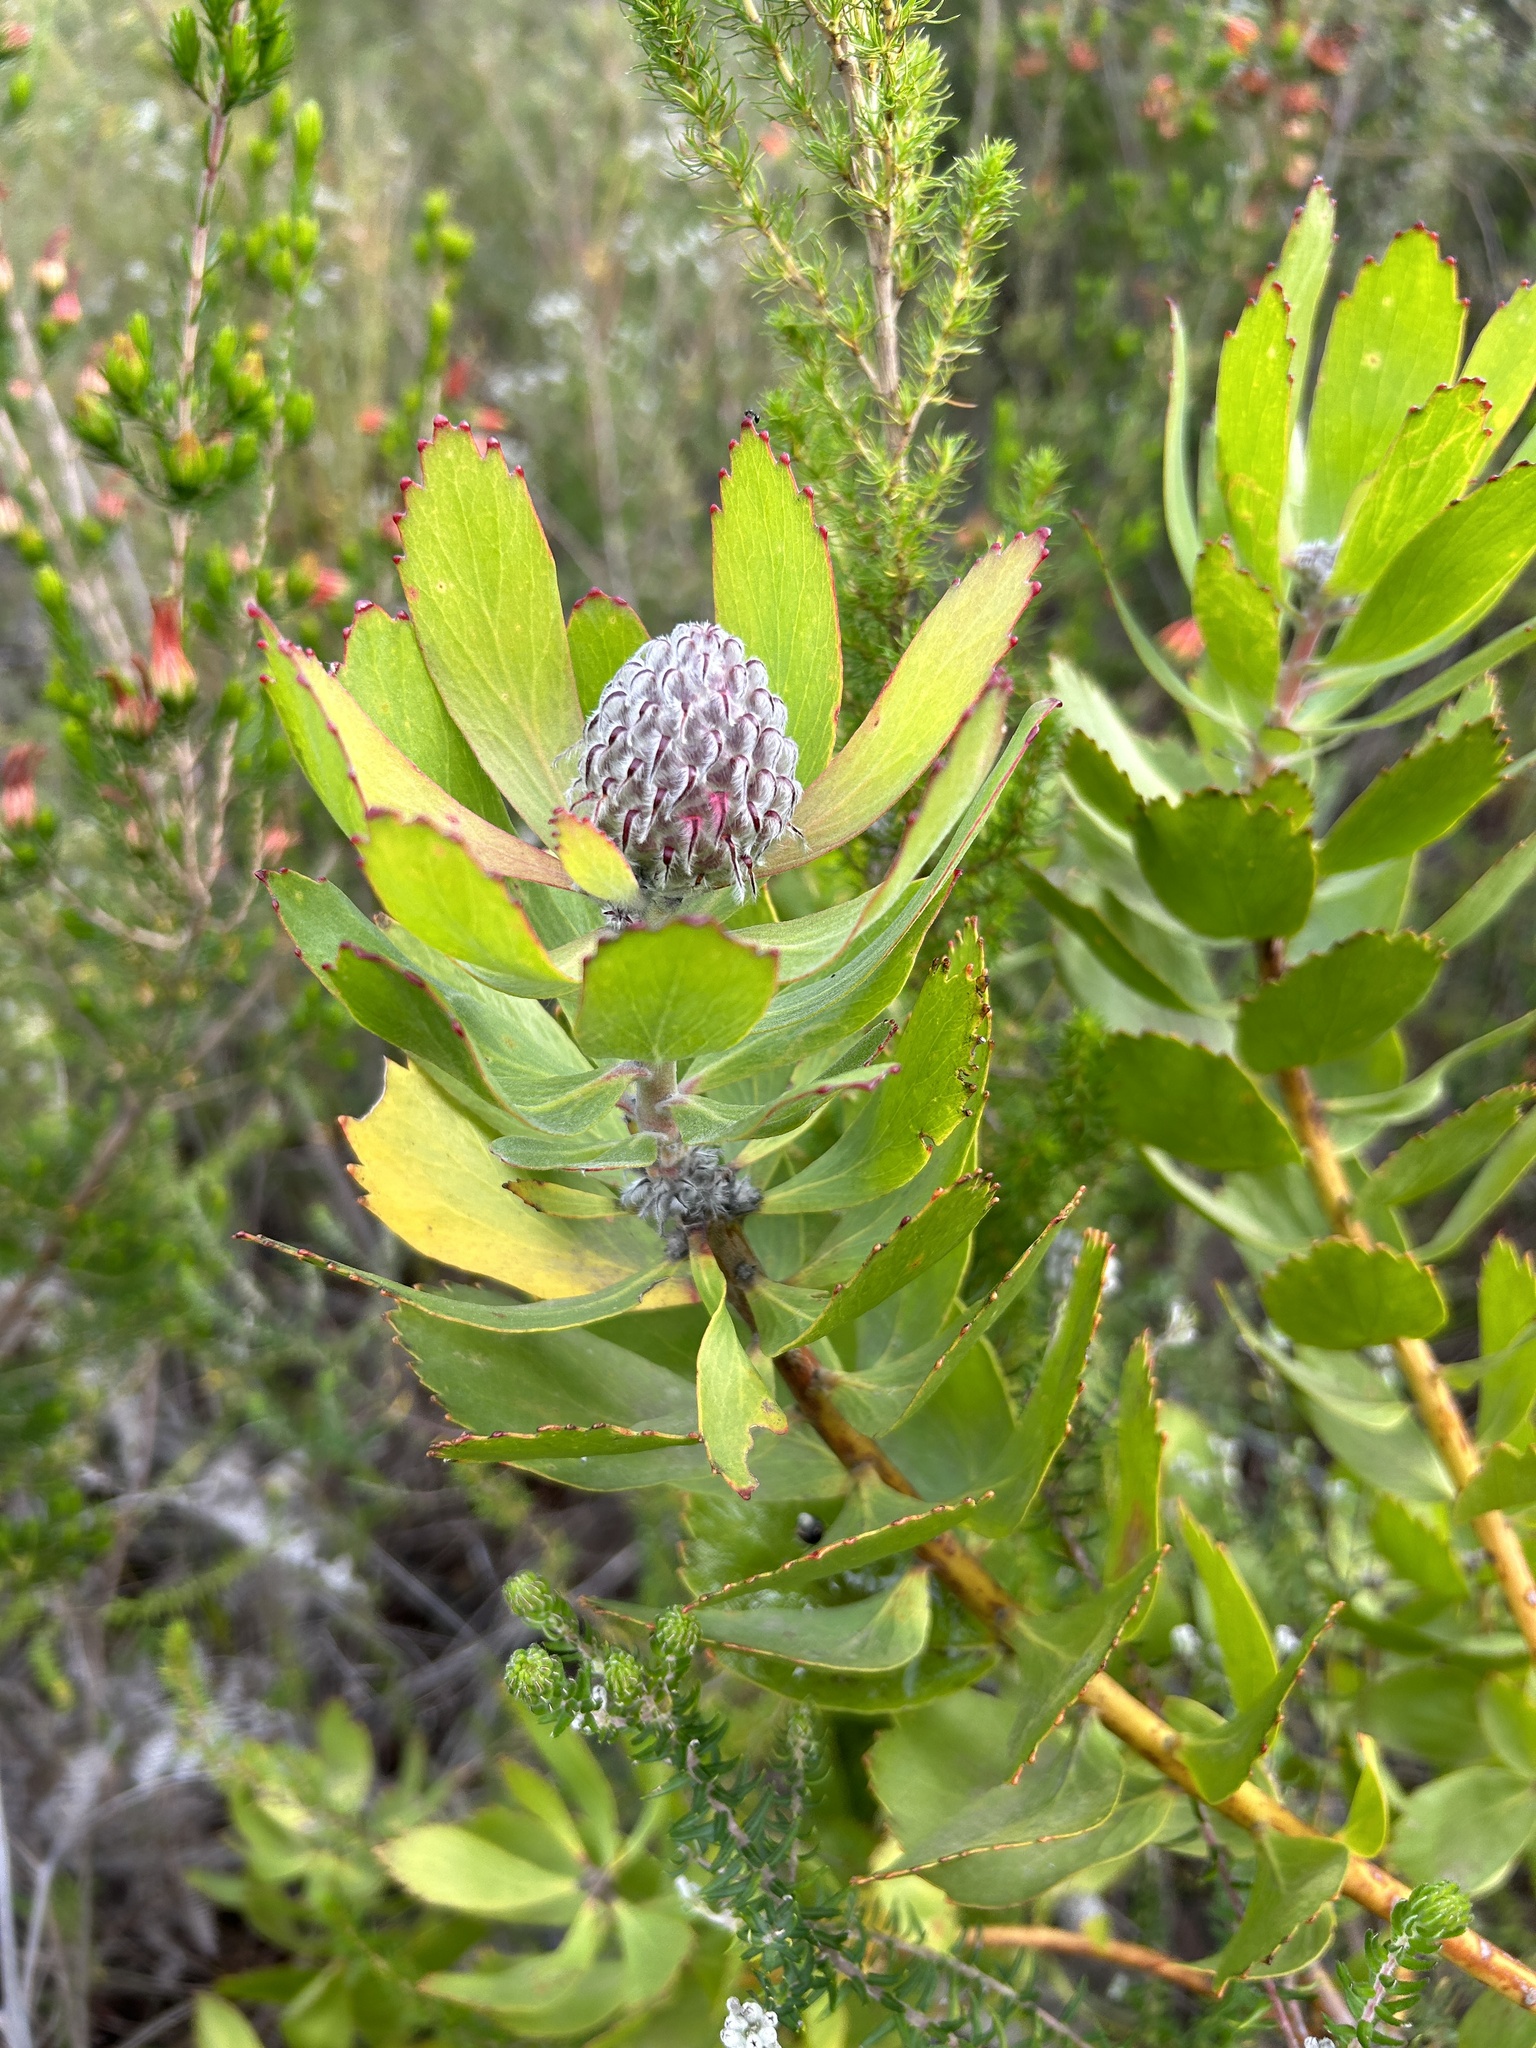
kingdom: Plantae
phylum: Tracheophyta
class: Magnoliopsida
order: Proteales
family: Proteaceae
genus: Leucospermum
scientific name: Leucospermum glabrum
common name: Outeniqua pincushion
